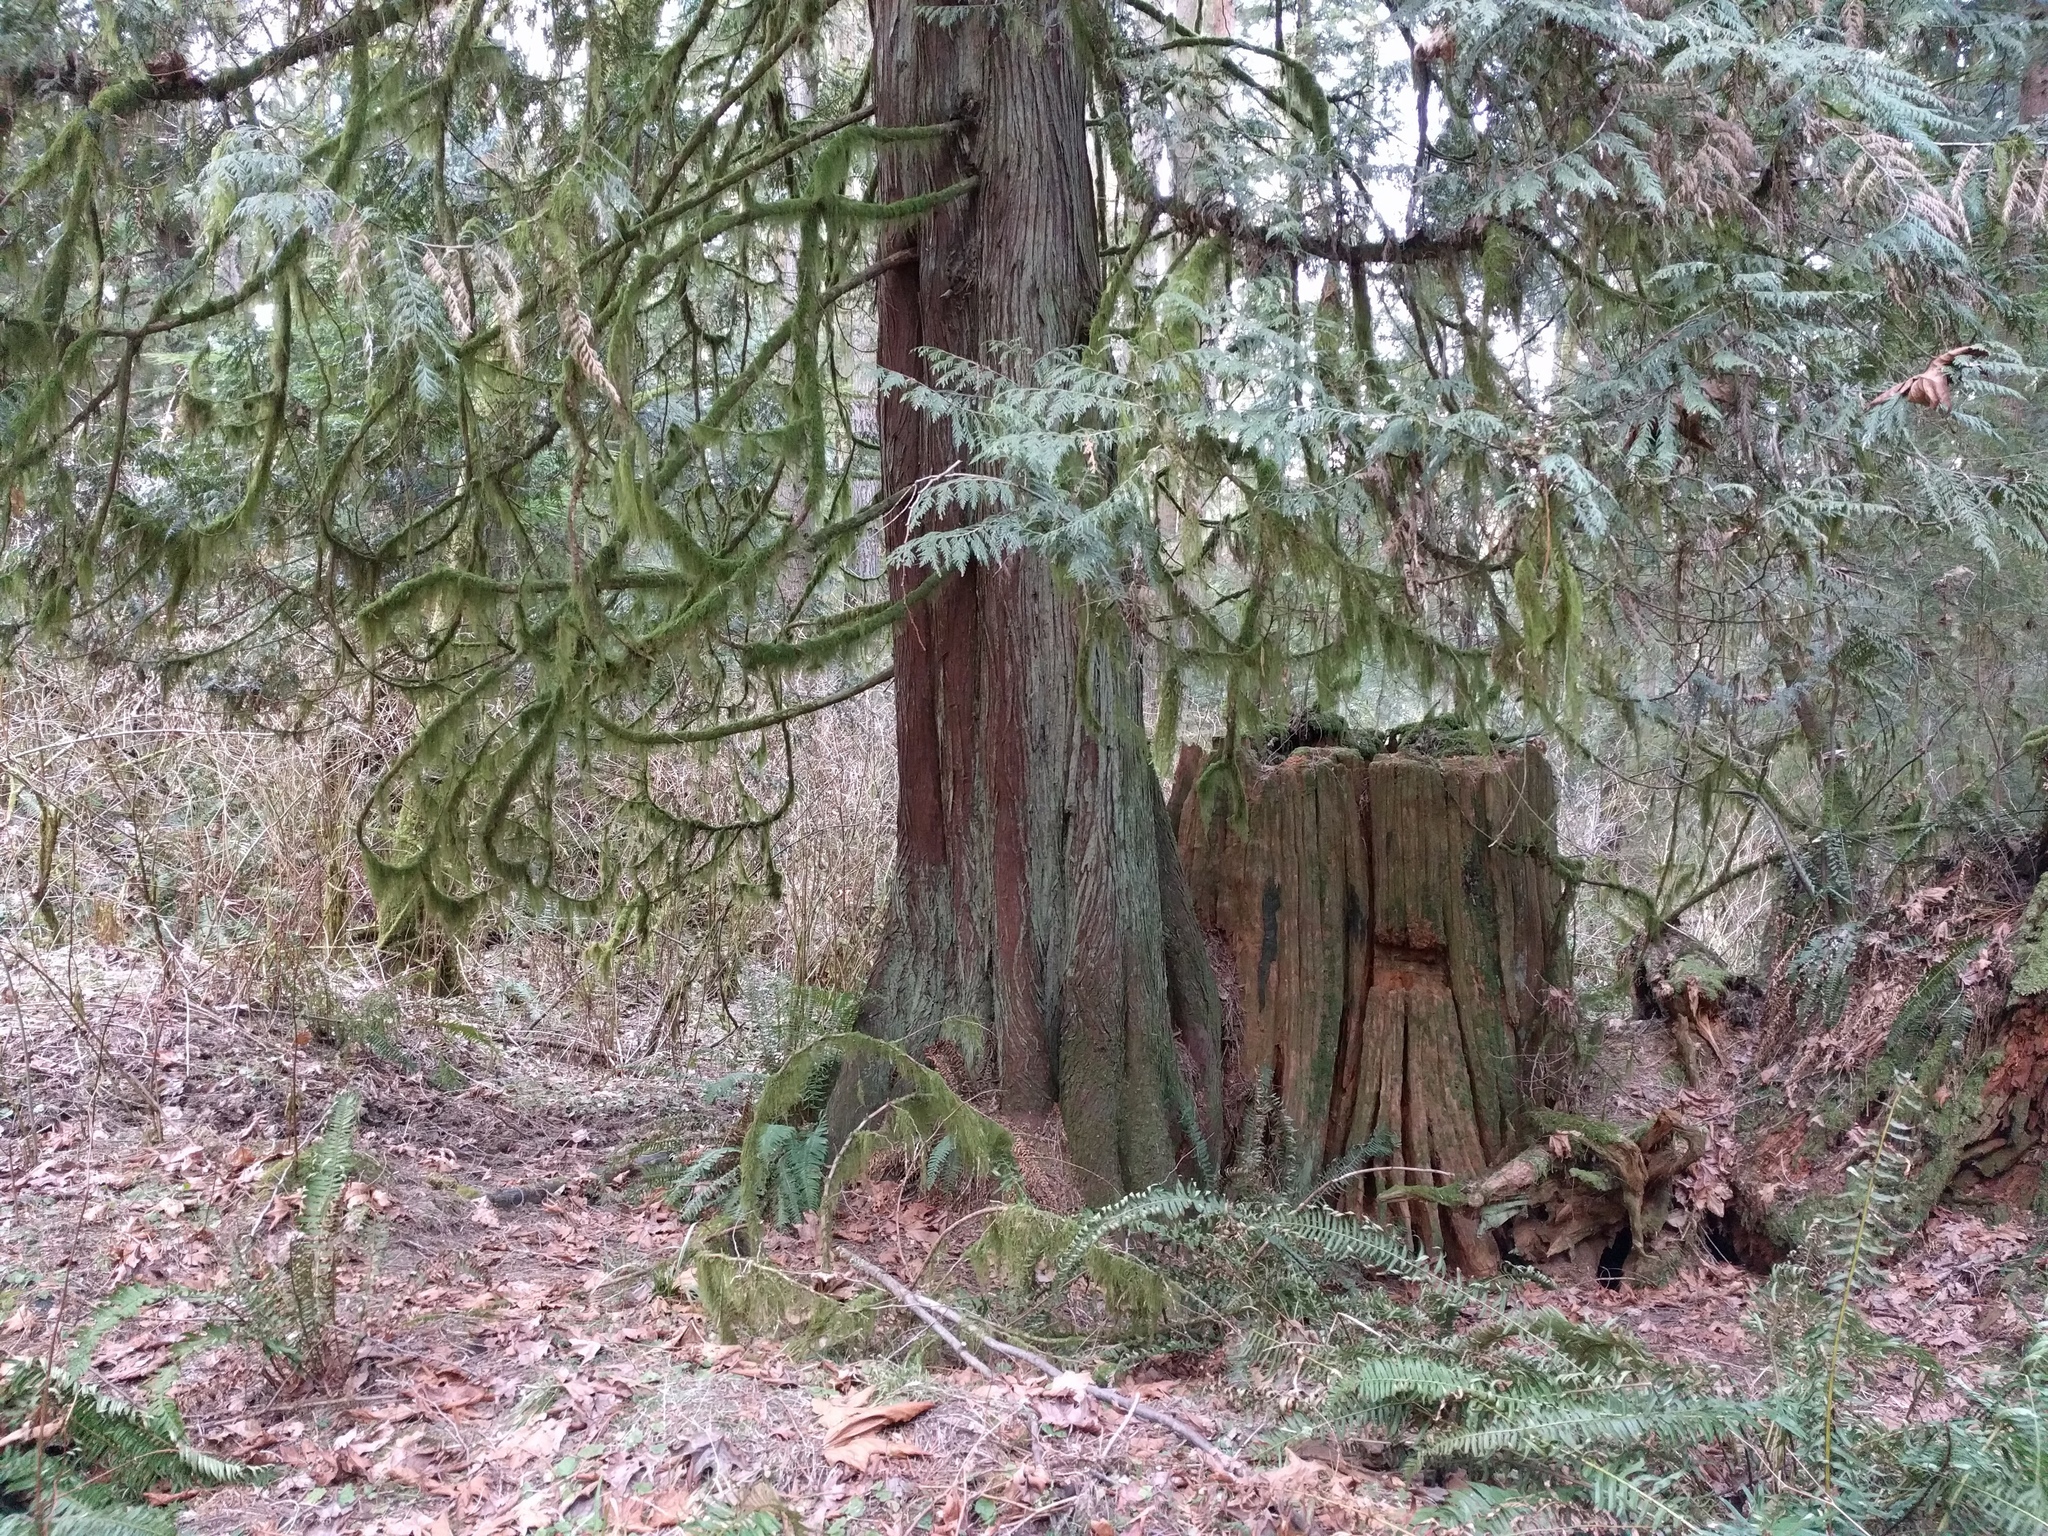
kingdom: Plantae
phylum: Tracheophyta
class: Pinopsida
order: Pinales
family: Cupressaceae
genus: Thuja
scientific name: Thuja plicata
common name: Western red-cedar
